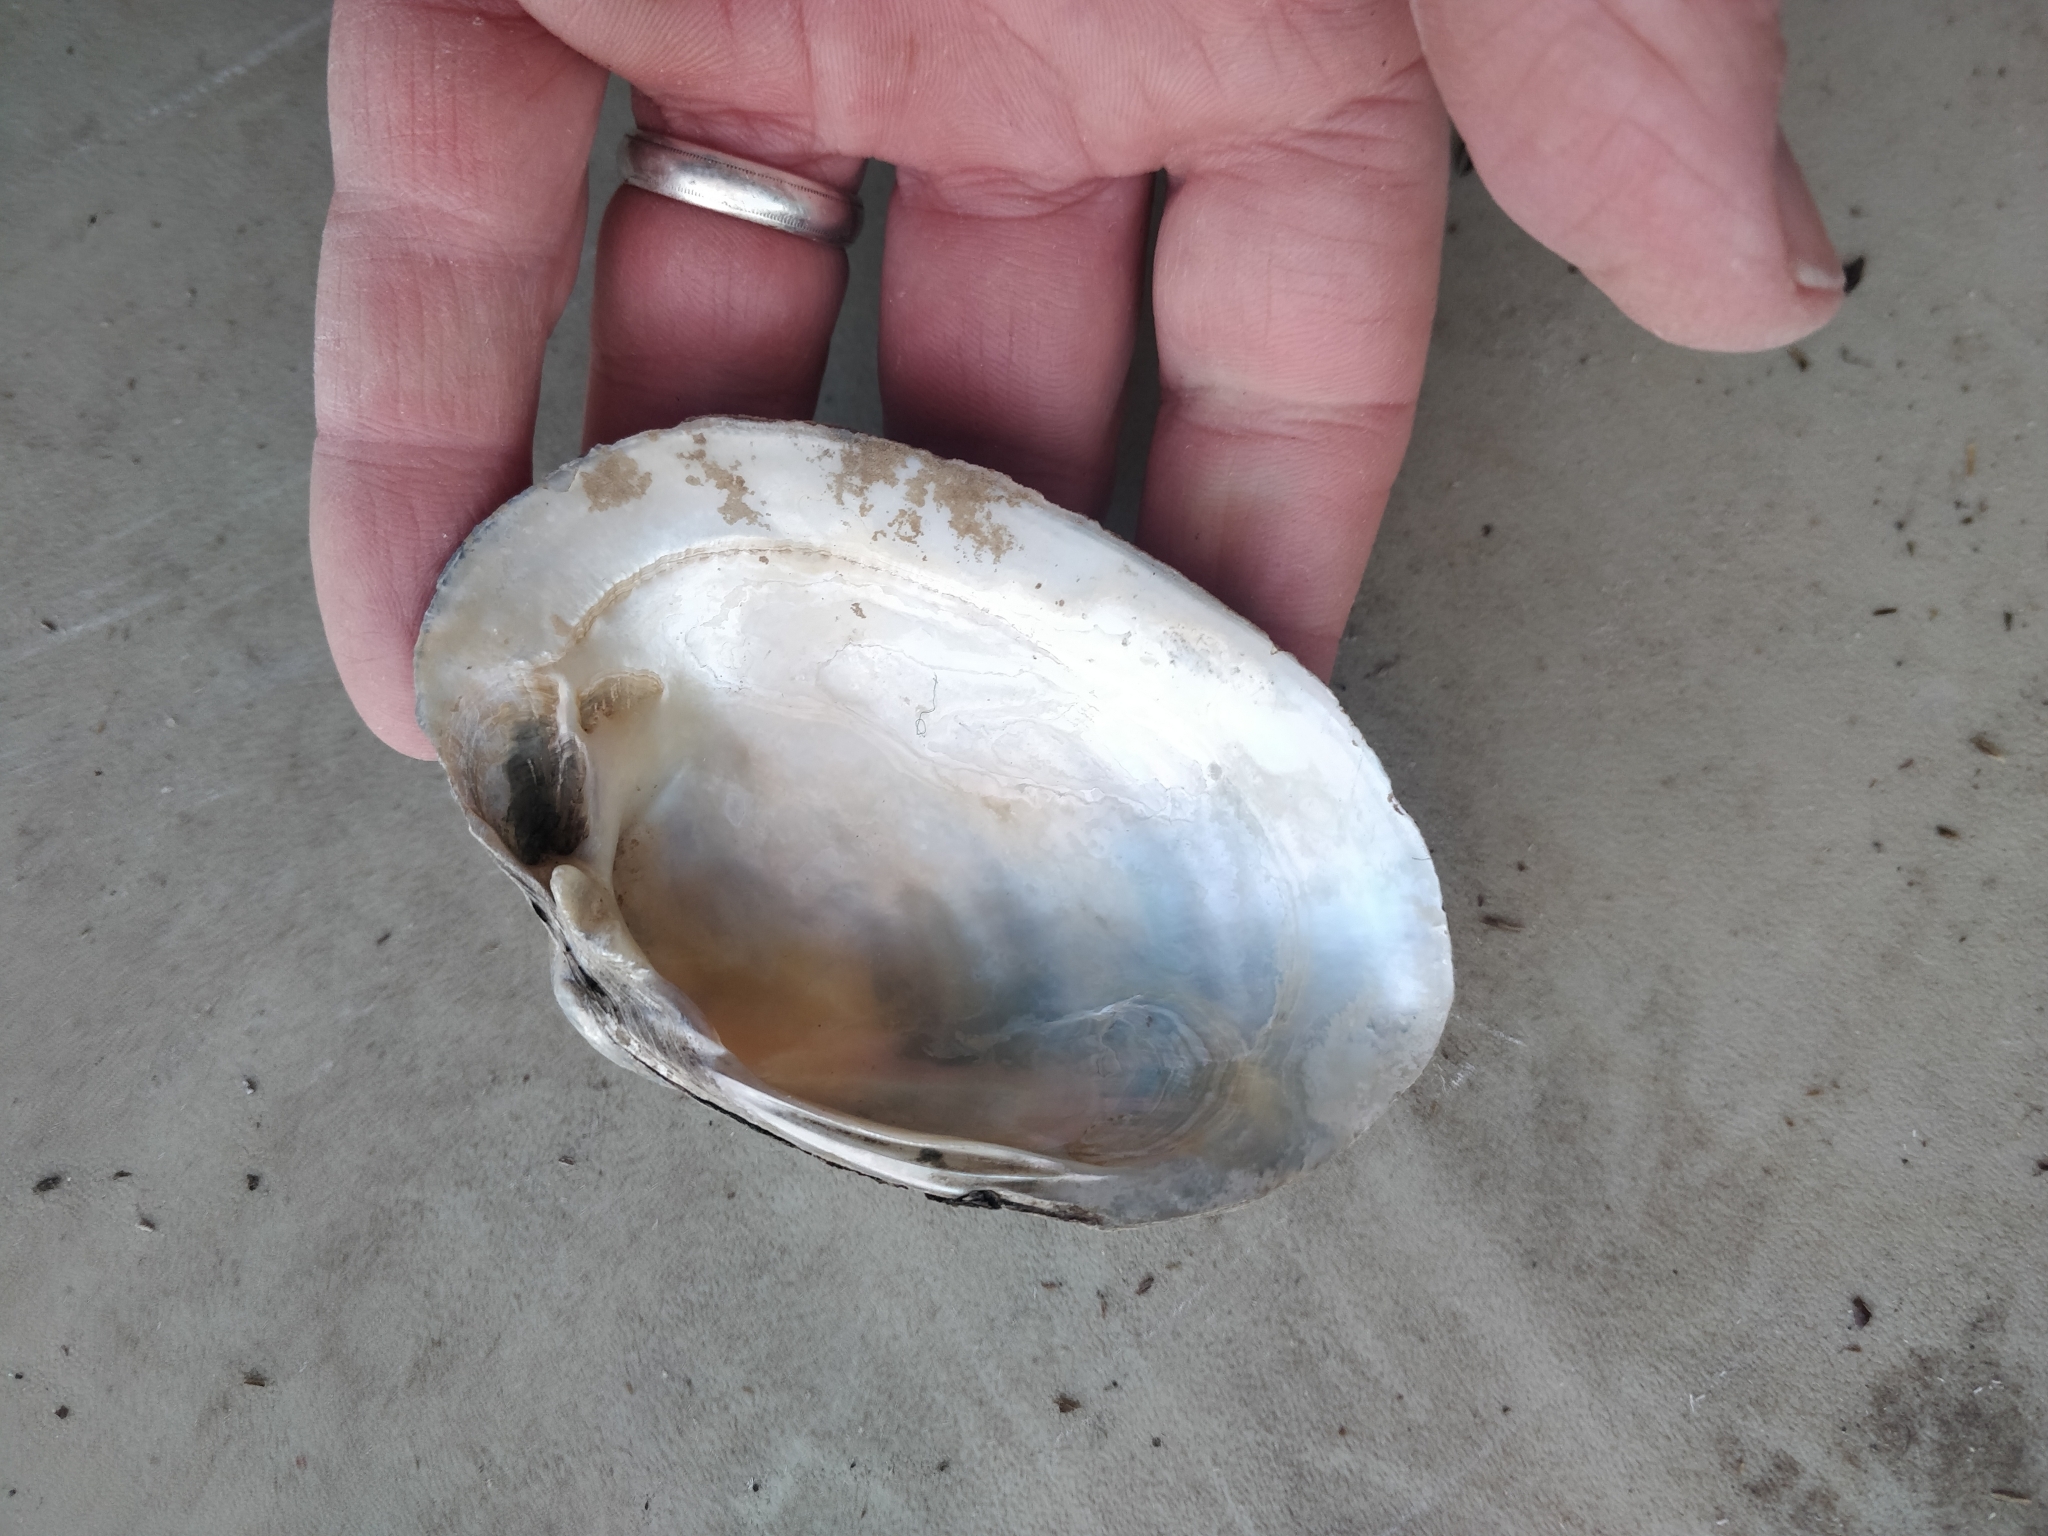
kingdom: Animalia
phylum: Mollusca
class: Bivalvia
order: Unionida
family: Unionidae
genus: Lampsilis
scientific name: Lampsilis cardium
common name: Plain pocketbook
